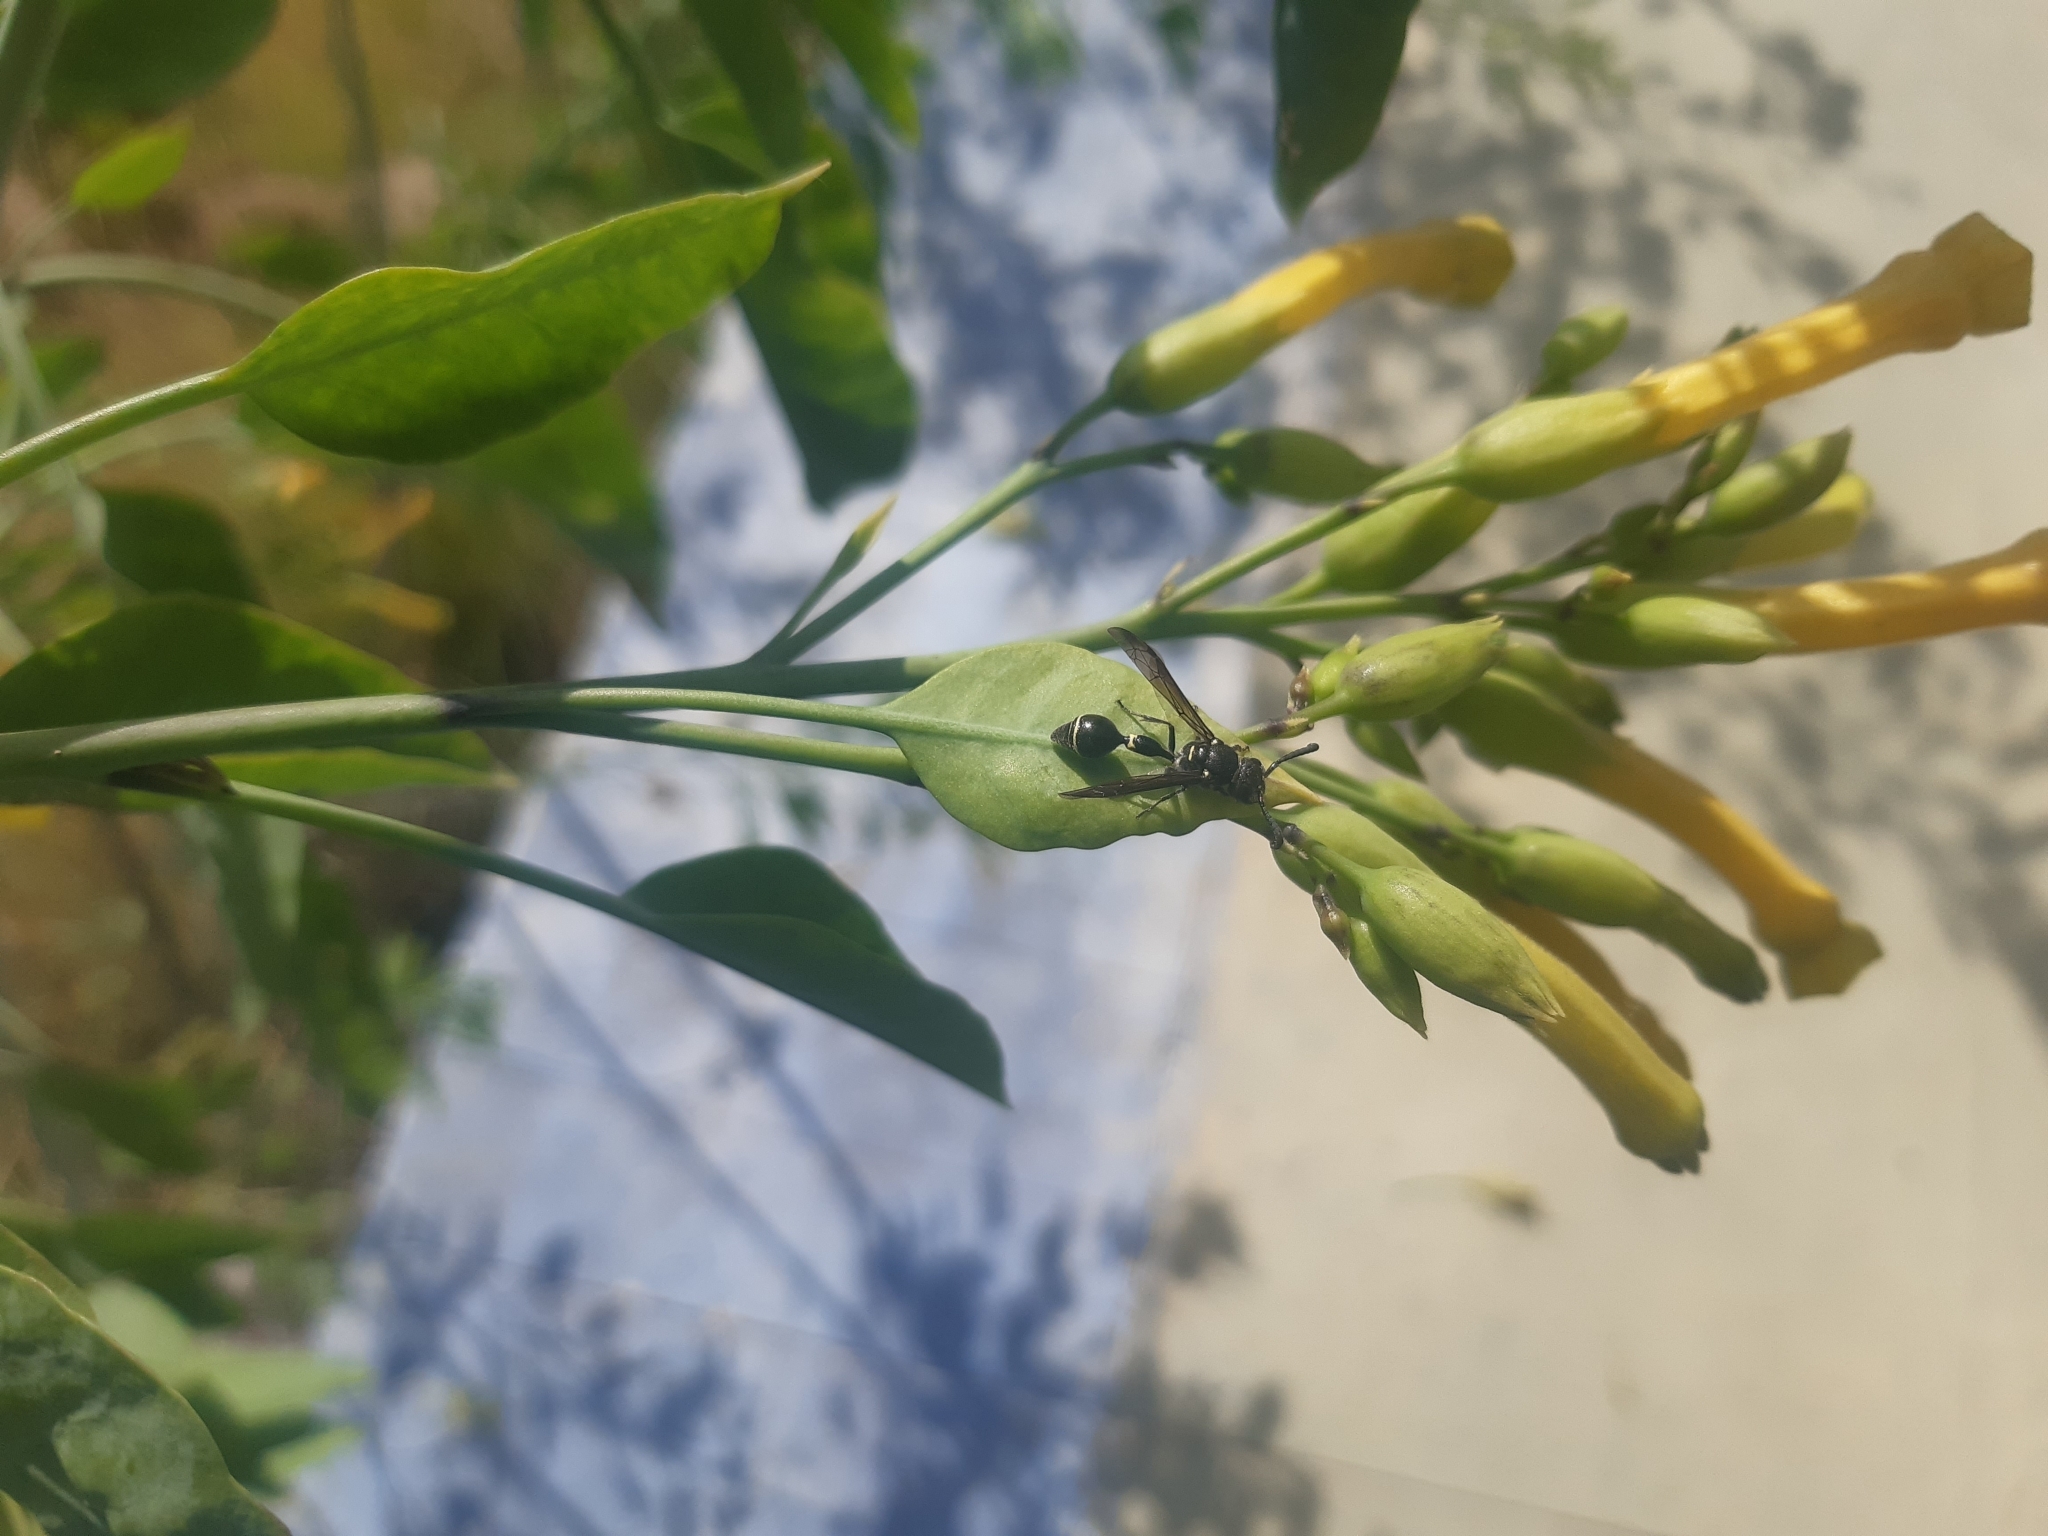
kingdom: Plantae
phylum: Tracheophyta
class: Magnoliopsida
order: Solanales
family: Solanaceae
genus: Nicotiana
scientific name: Nicotiana glauca
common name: Tree tobacco
